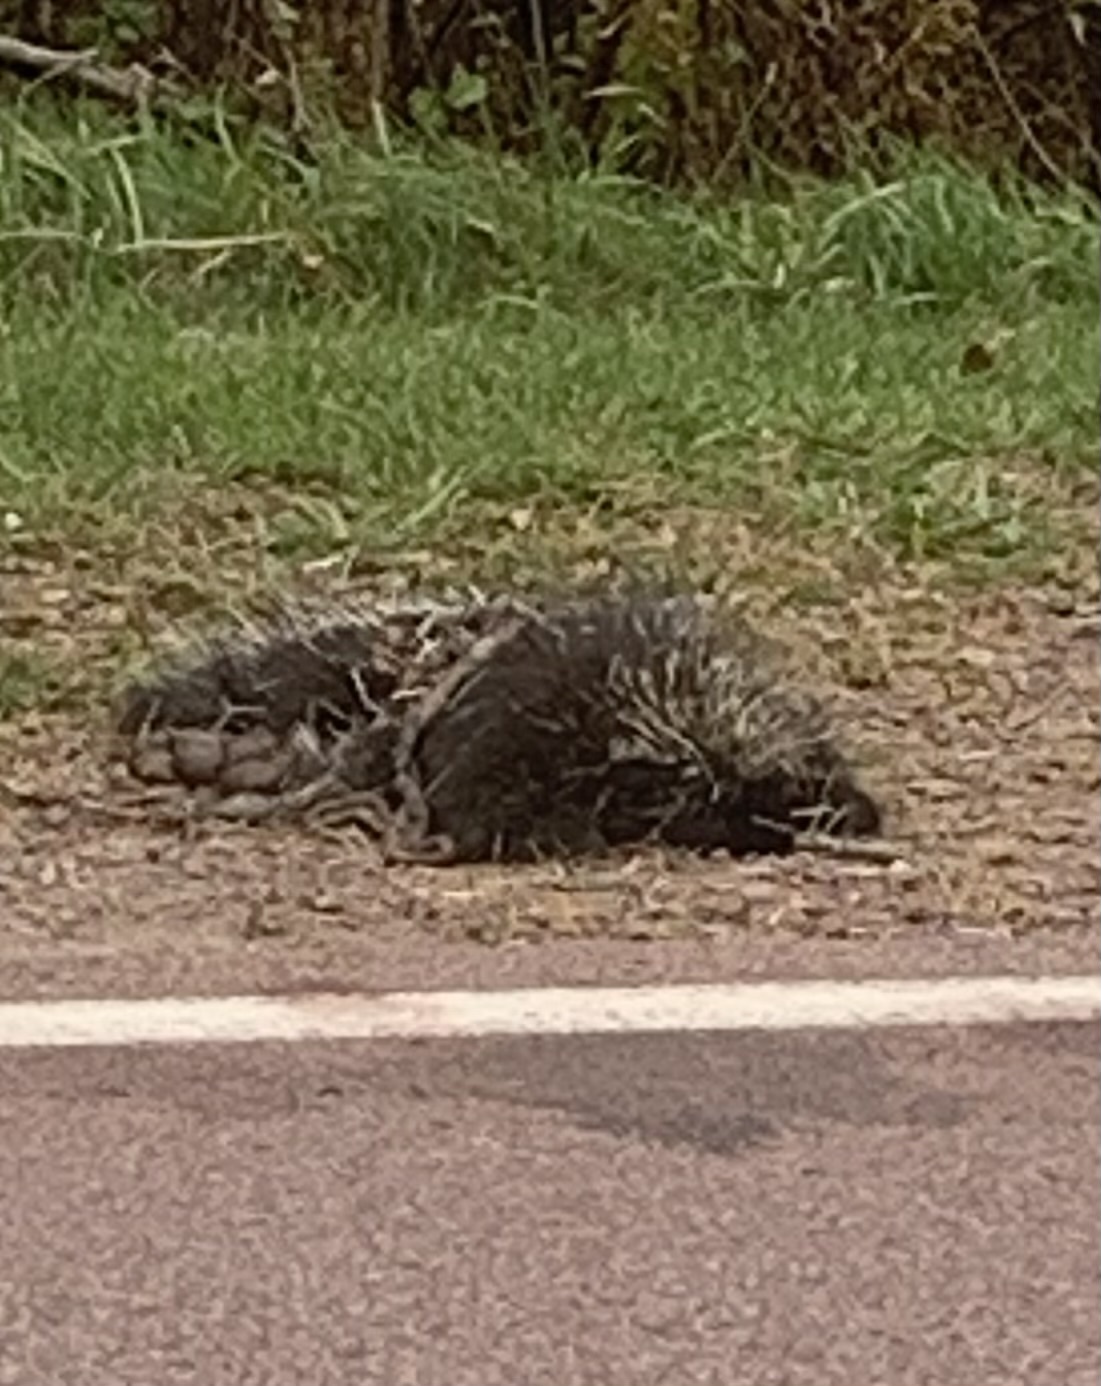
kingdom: Animalia
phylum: Chordata
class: Mammalia
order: Rodentia
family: Erethizontidae
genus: Erethizon
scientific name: Erethizon dorsatus
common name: North american porcupine
